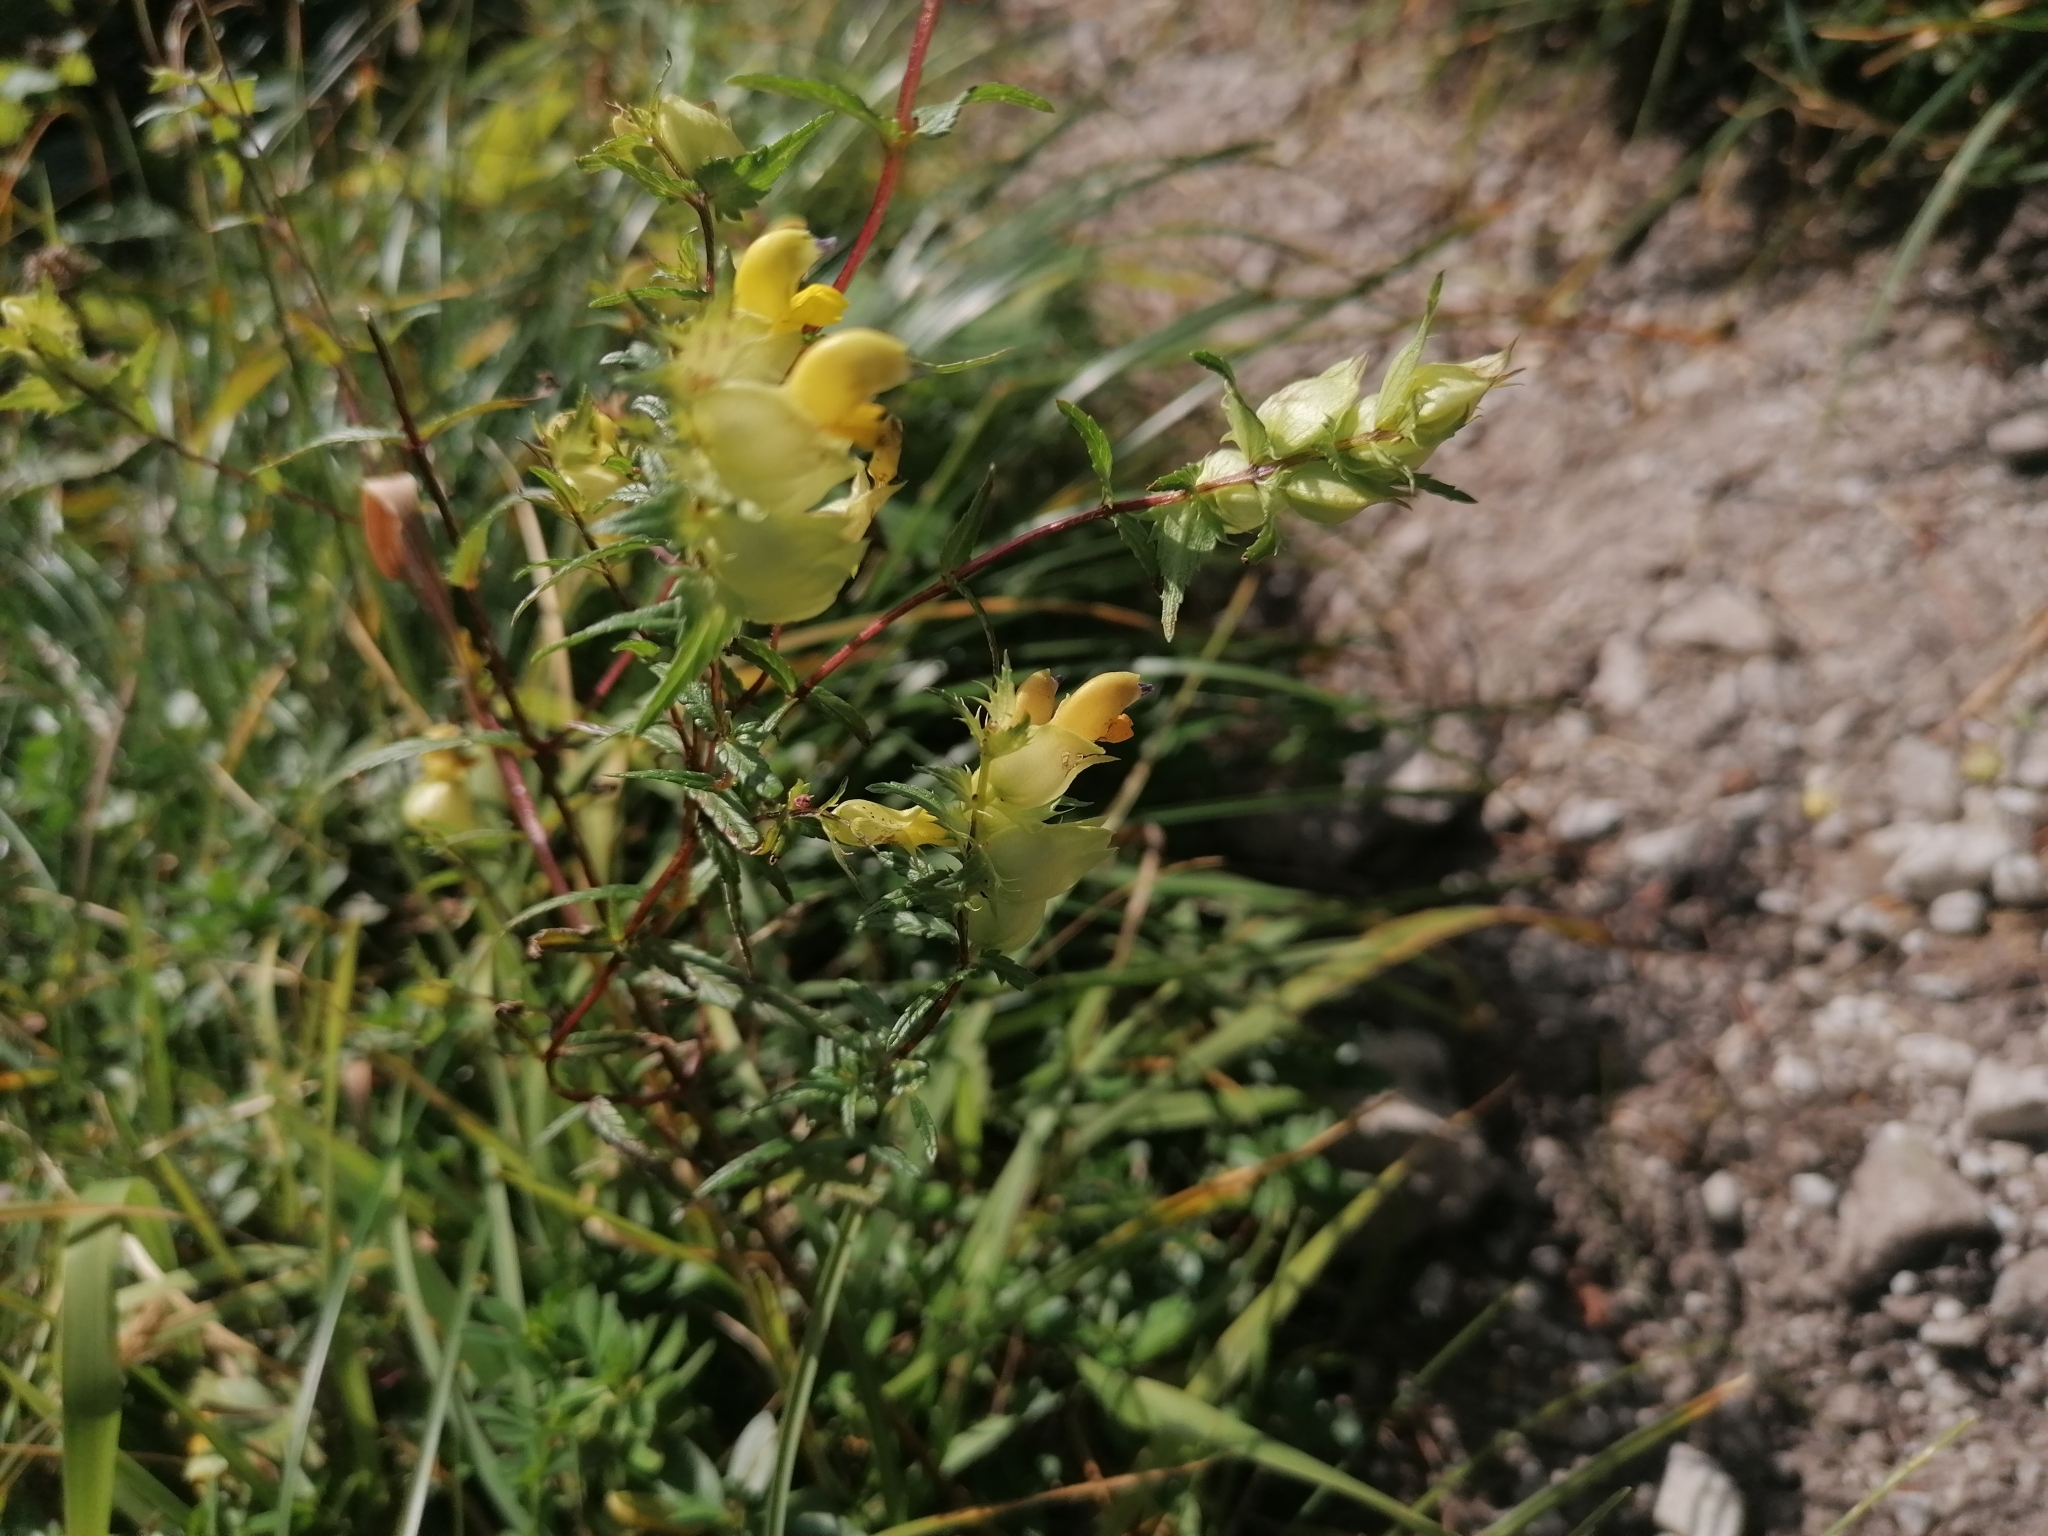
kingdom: Plantae
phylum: Tracheophyta
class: Magnoliopsida
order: Lamiales
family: Orobanchaceae
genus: Rhinanthus
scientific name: Rhinanthus glacialis
